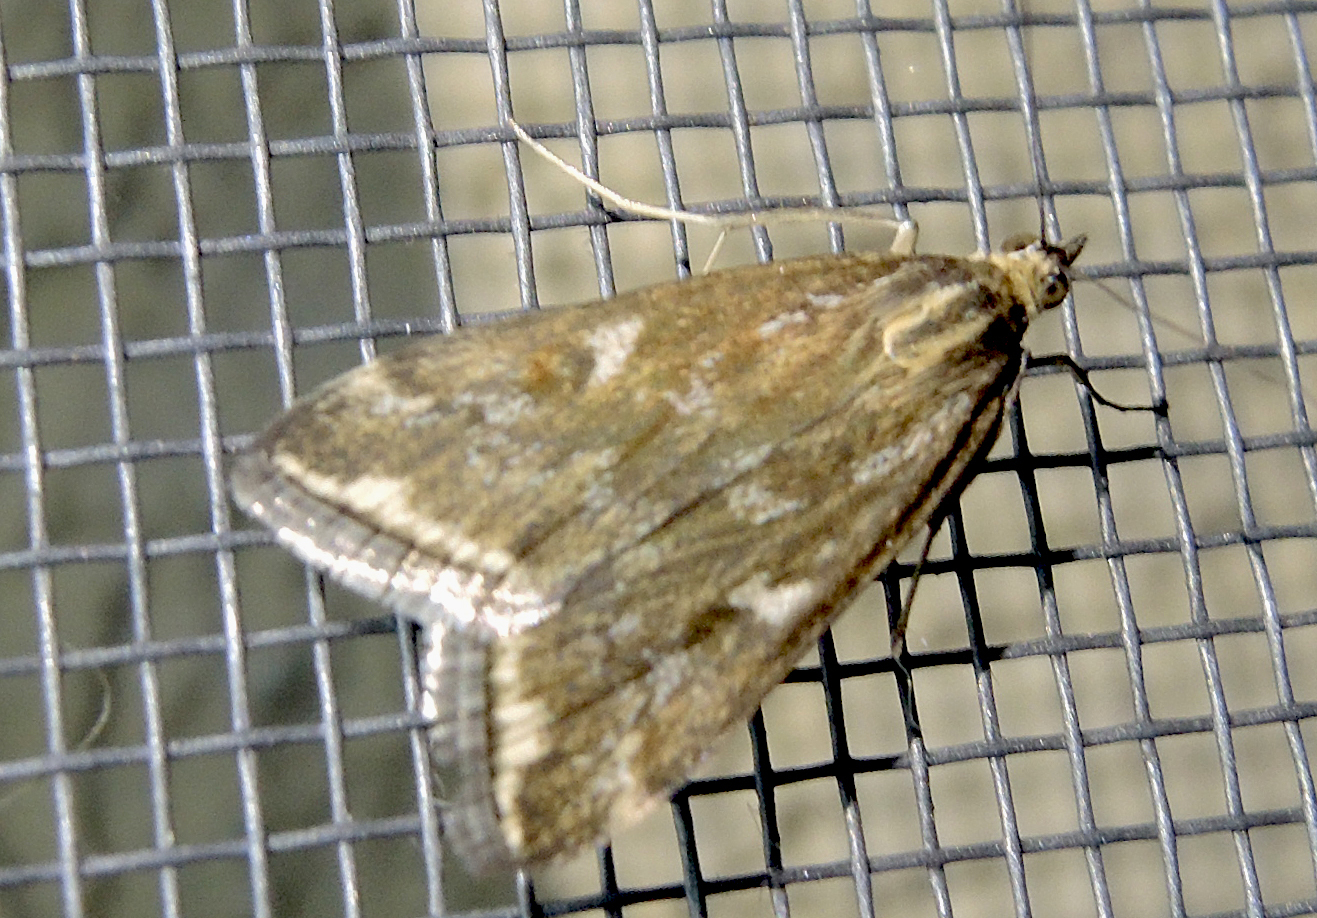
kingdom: Animalia
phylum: Arthropoda
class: Insecta
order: Lepidoptera
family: Crambidae
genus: Loxostege
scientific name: Loxostege sticticalis
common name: Crambid moth
